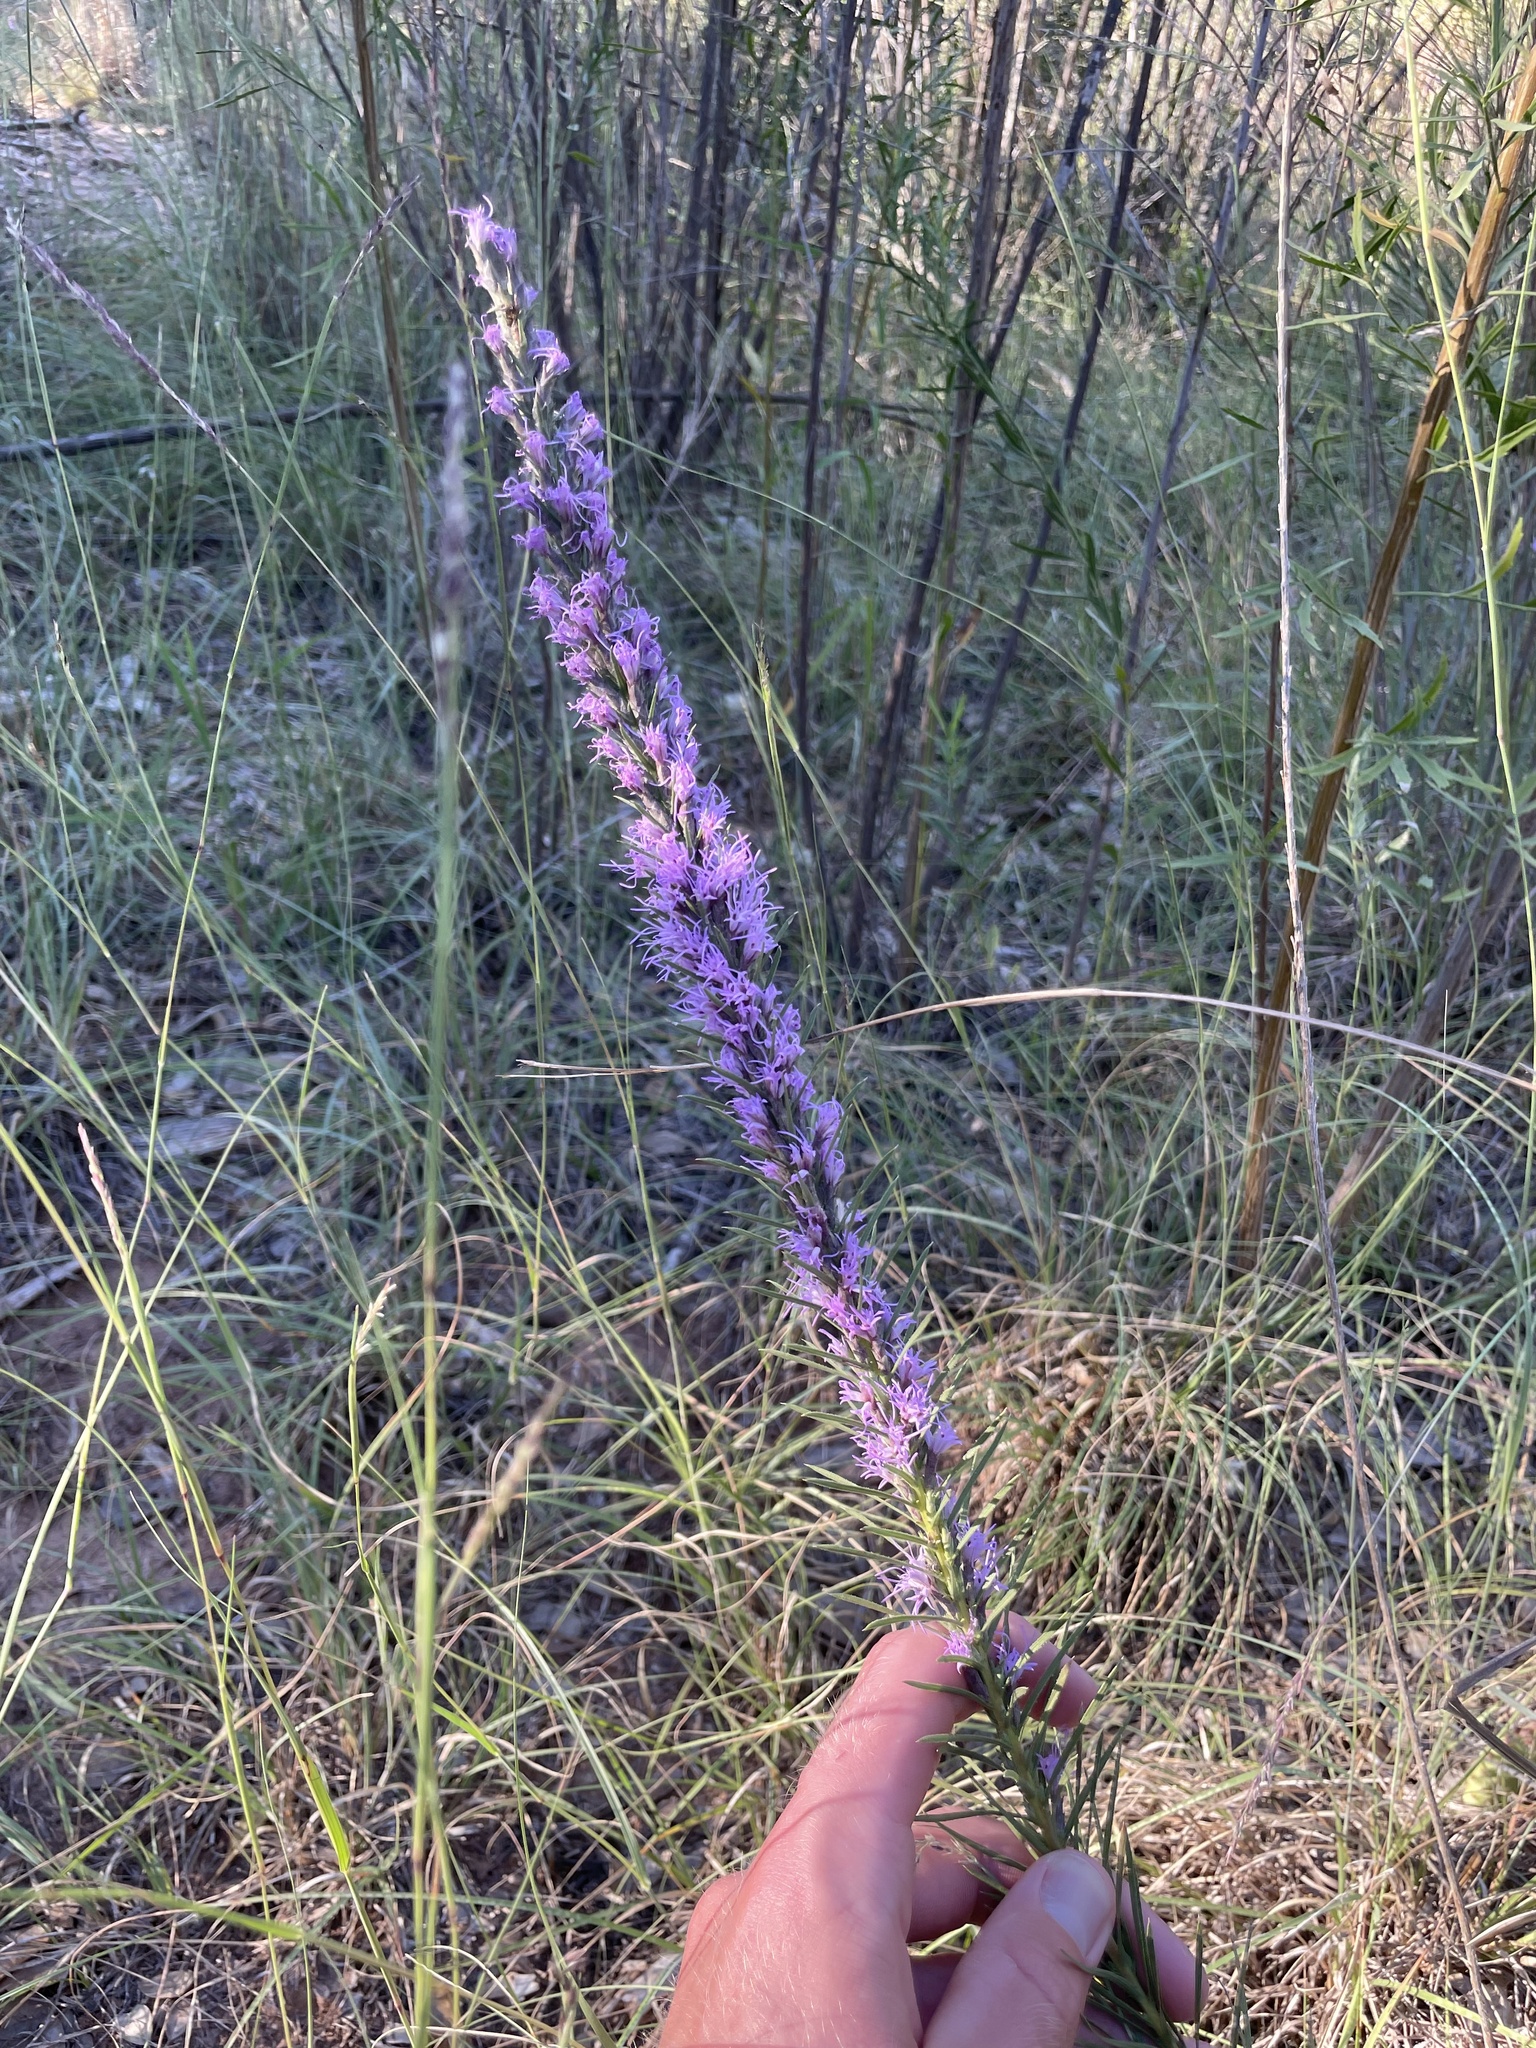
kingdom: Plantae
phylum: Tracheophyta
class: Magnoliopsida
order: Asterales
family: Asteraceae
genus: Liatris
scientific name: Liatris punctata
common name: Dotted gayfeather
